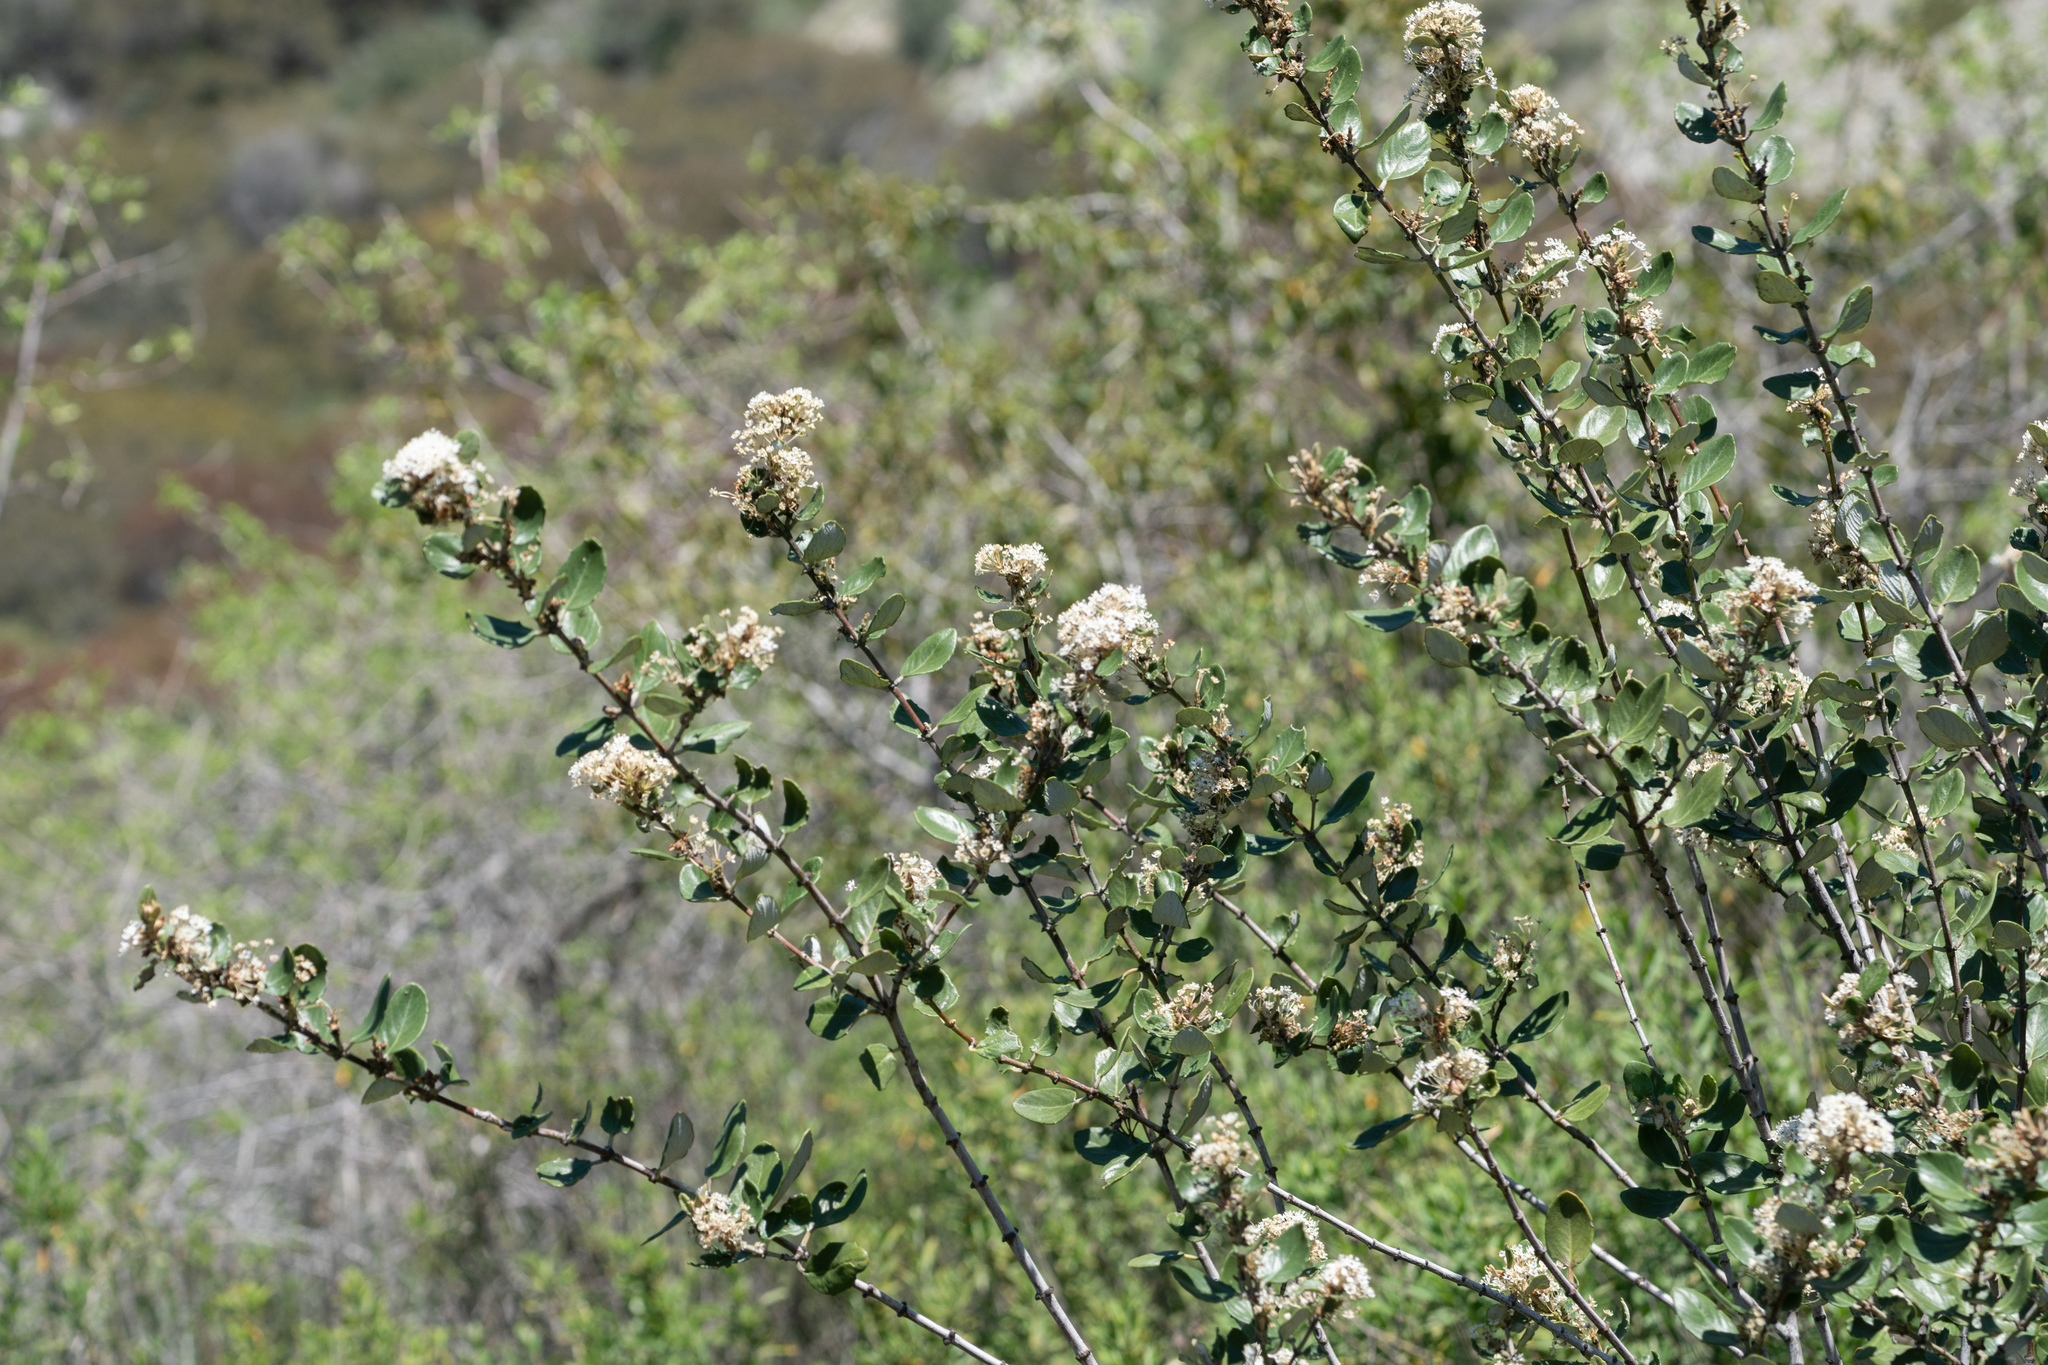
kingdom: Plantae
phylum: Tracheophyta
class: Magnoliopsida
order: Rosales
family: Rhamnaceae
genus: Ceanothus
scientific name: Ceanothus crassifolius
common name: Hoaryleaf ceanothus
